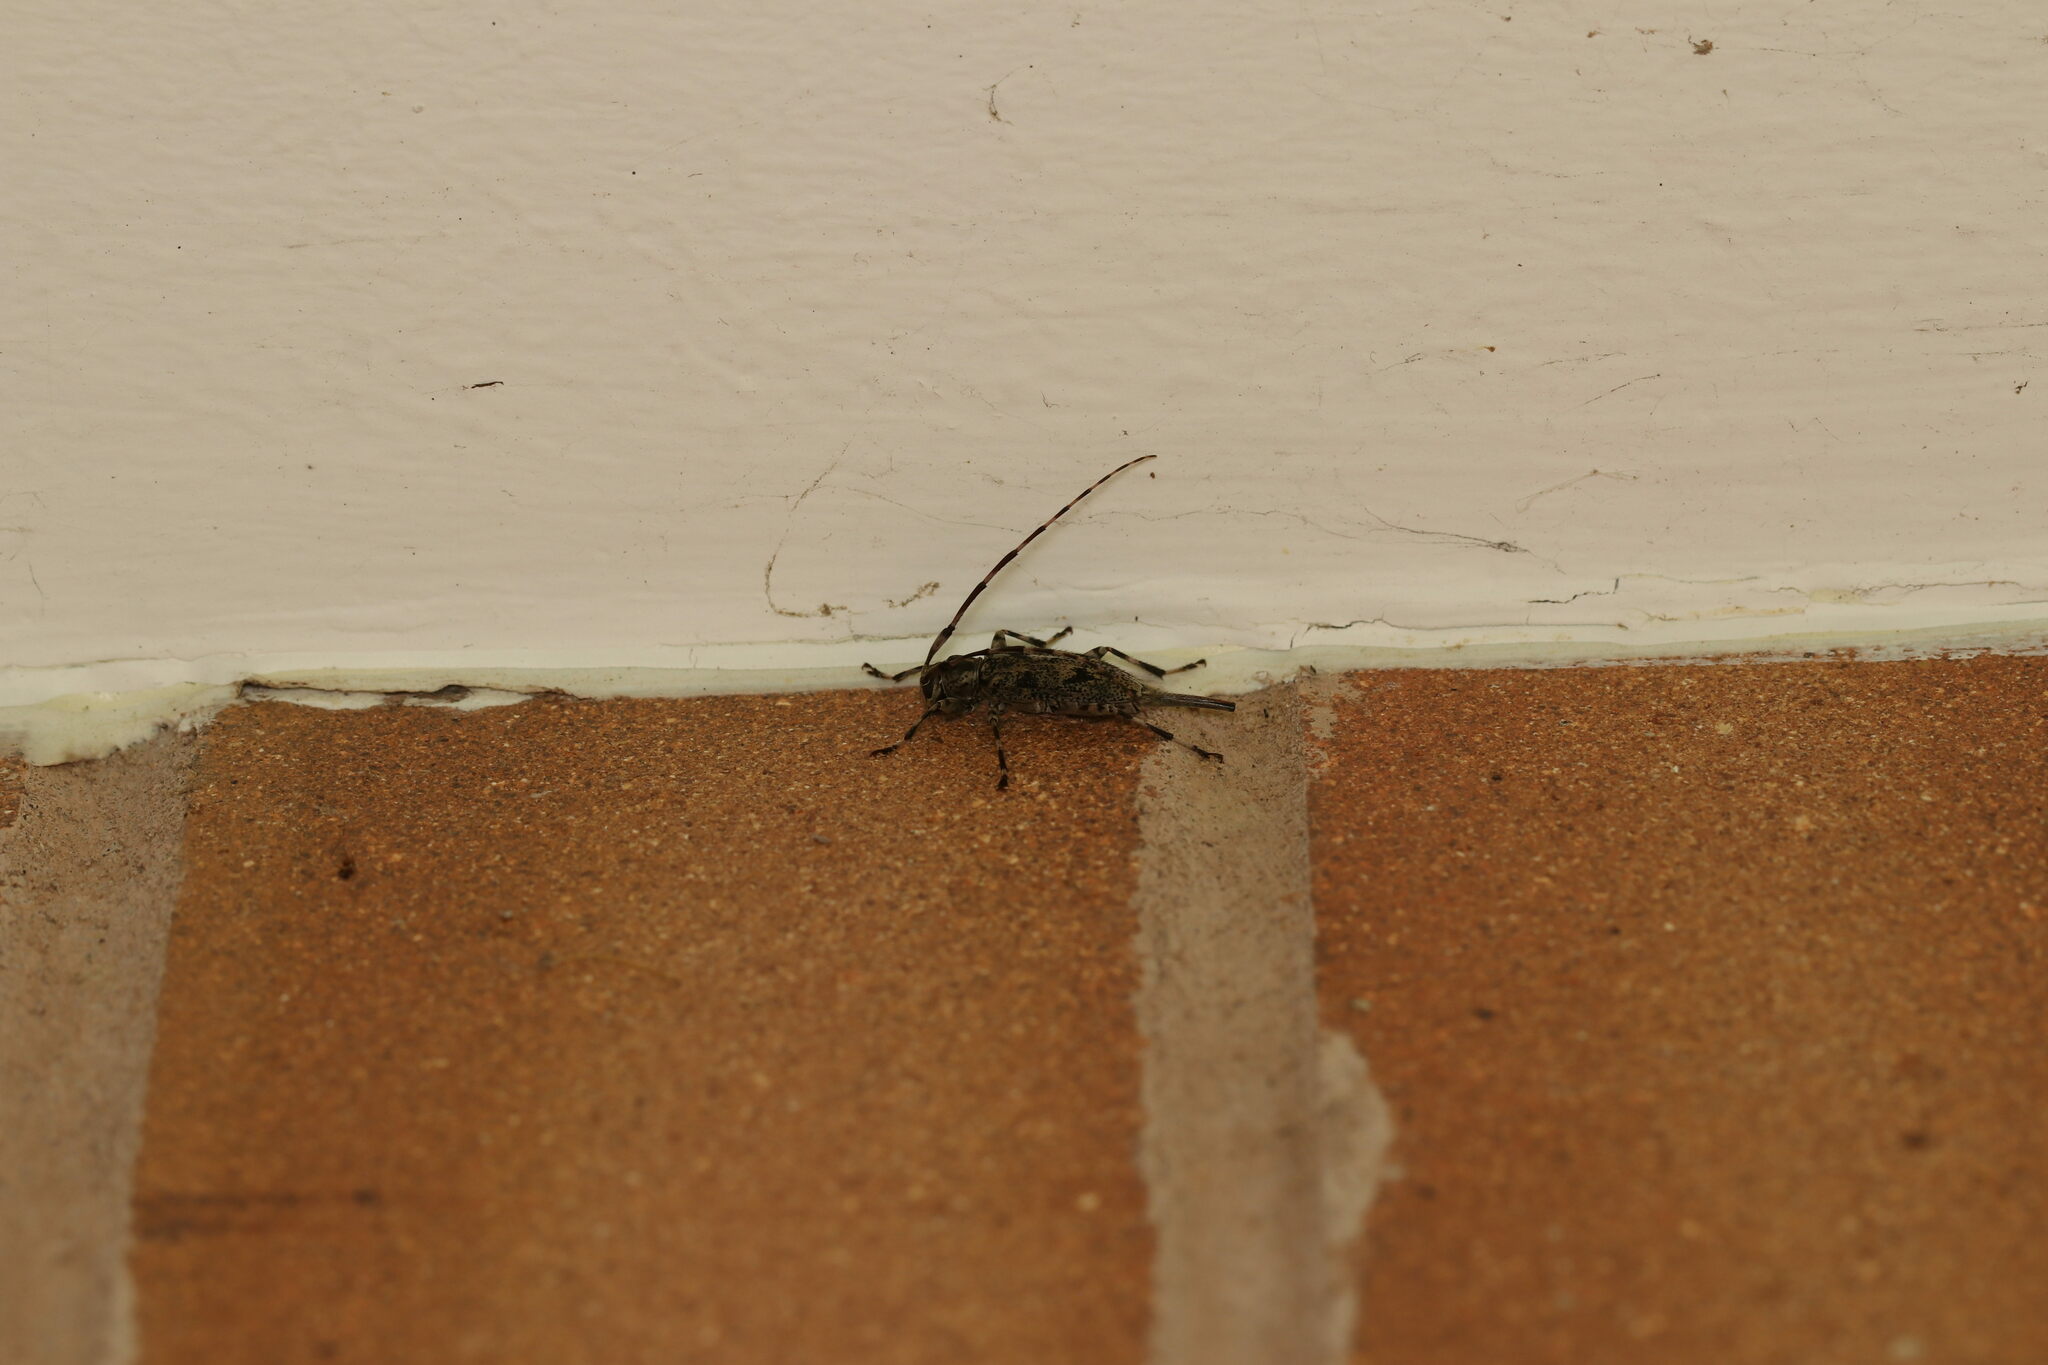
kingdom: Animalia
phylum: Arthropoda
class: Insecta
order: Coleoptera
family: Cerambycidae
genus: Graphisurus
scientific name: Graphisurus fasciatus
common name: Banded graphisurus
